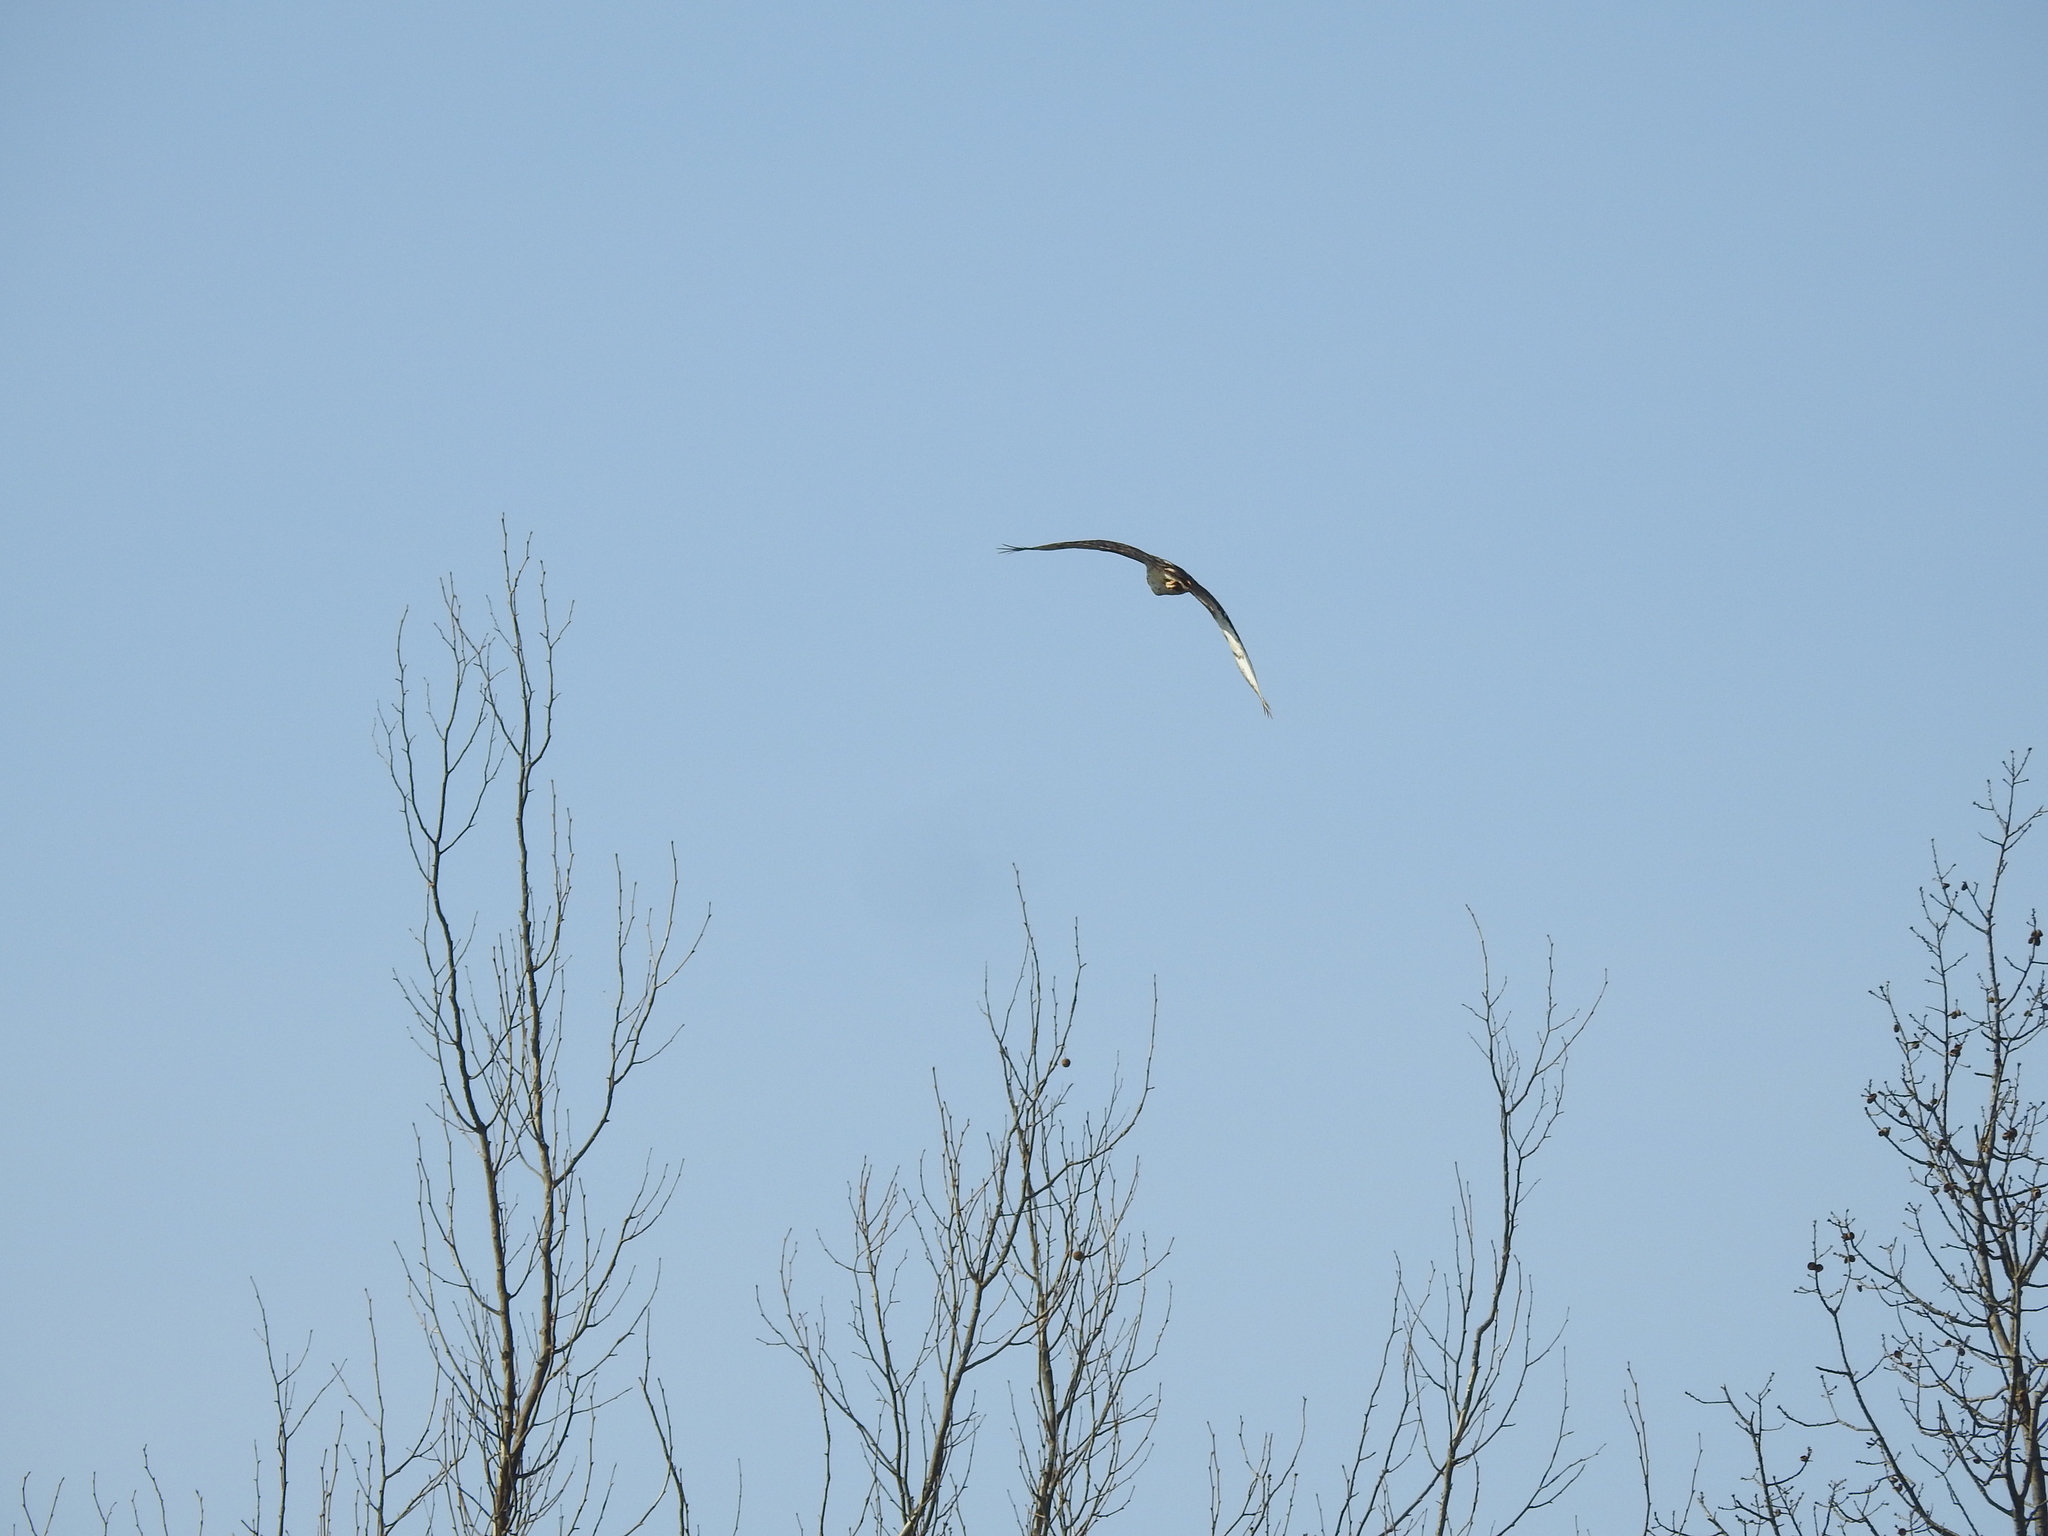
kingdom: Animalia
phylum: Chordata
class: Aves
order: Accipitriformes
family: Accipitridae
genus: Buteo
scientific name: Buteo jamaicensis
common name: Red-tailed hawk
